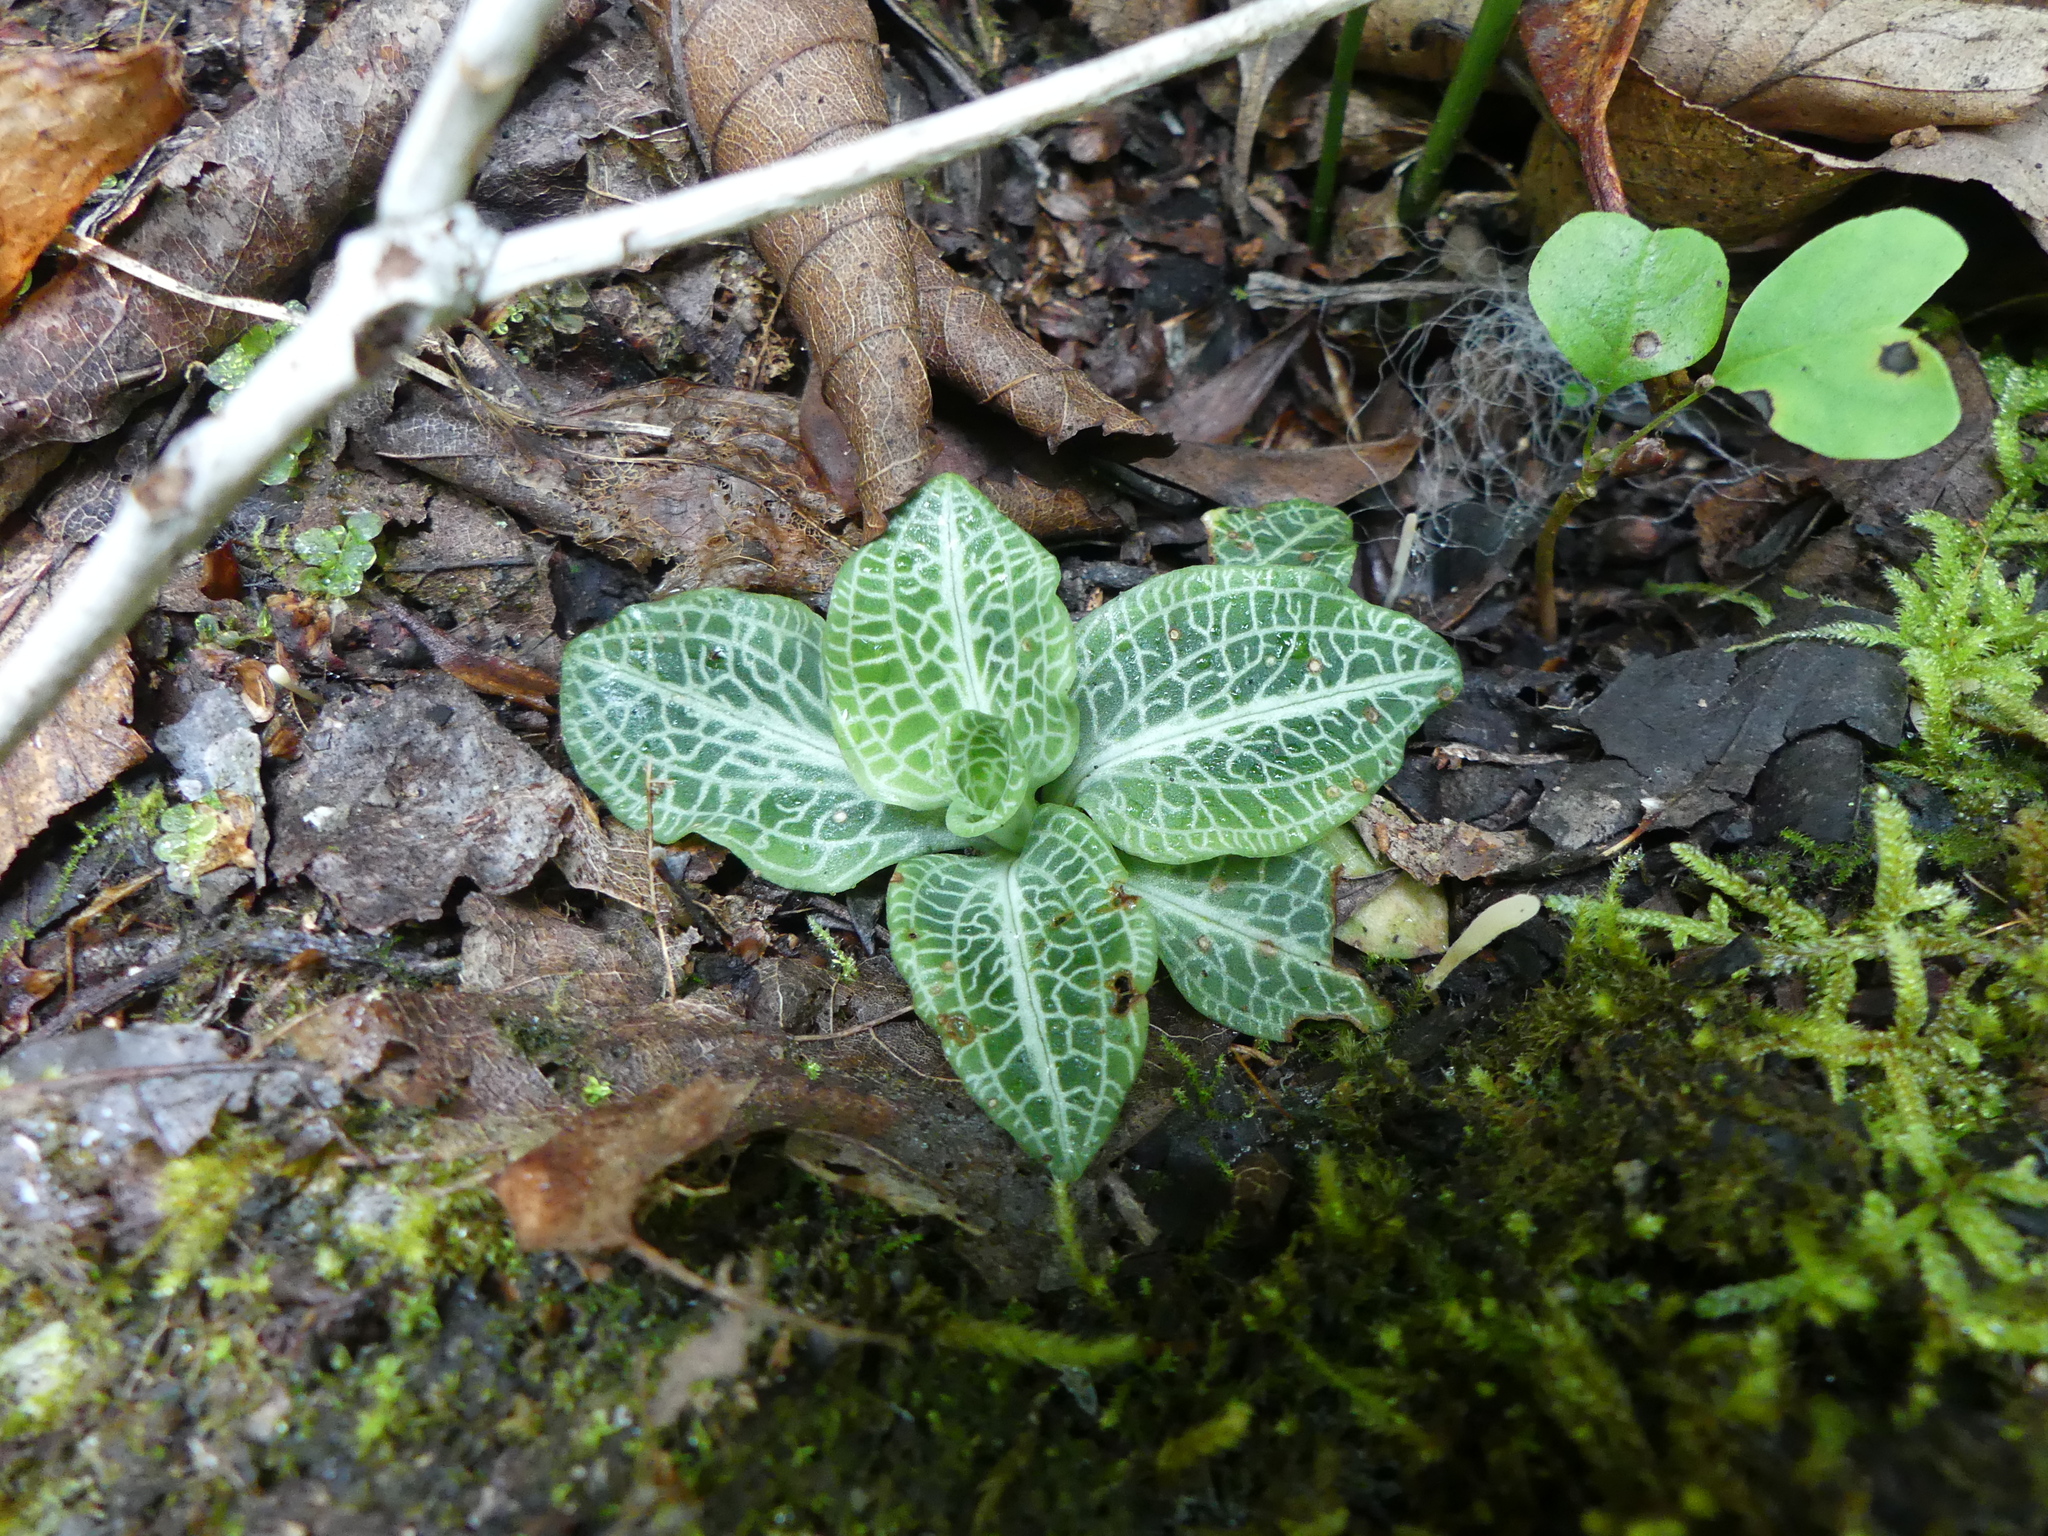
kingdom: Plantae
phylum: Tracheophyta
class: Liliopsida
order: Asparagales
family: Orchidaceae
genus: Goodyera
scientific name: Goodyera pubescens
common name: Downy rattlesnake-plantain
